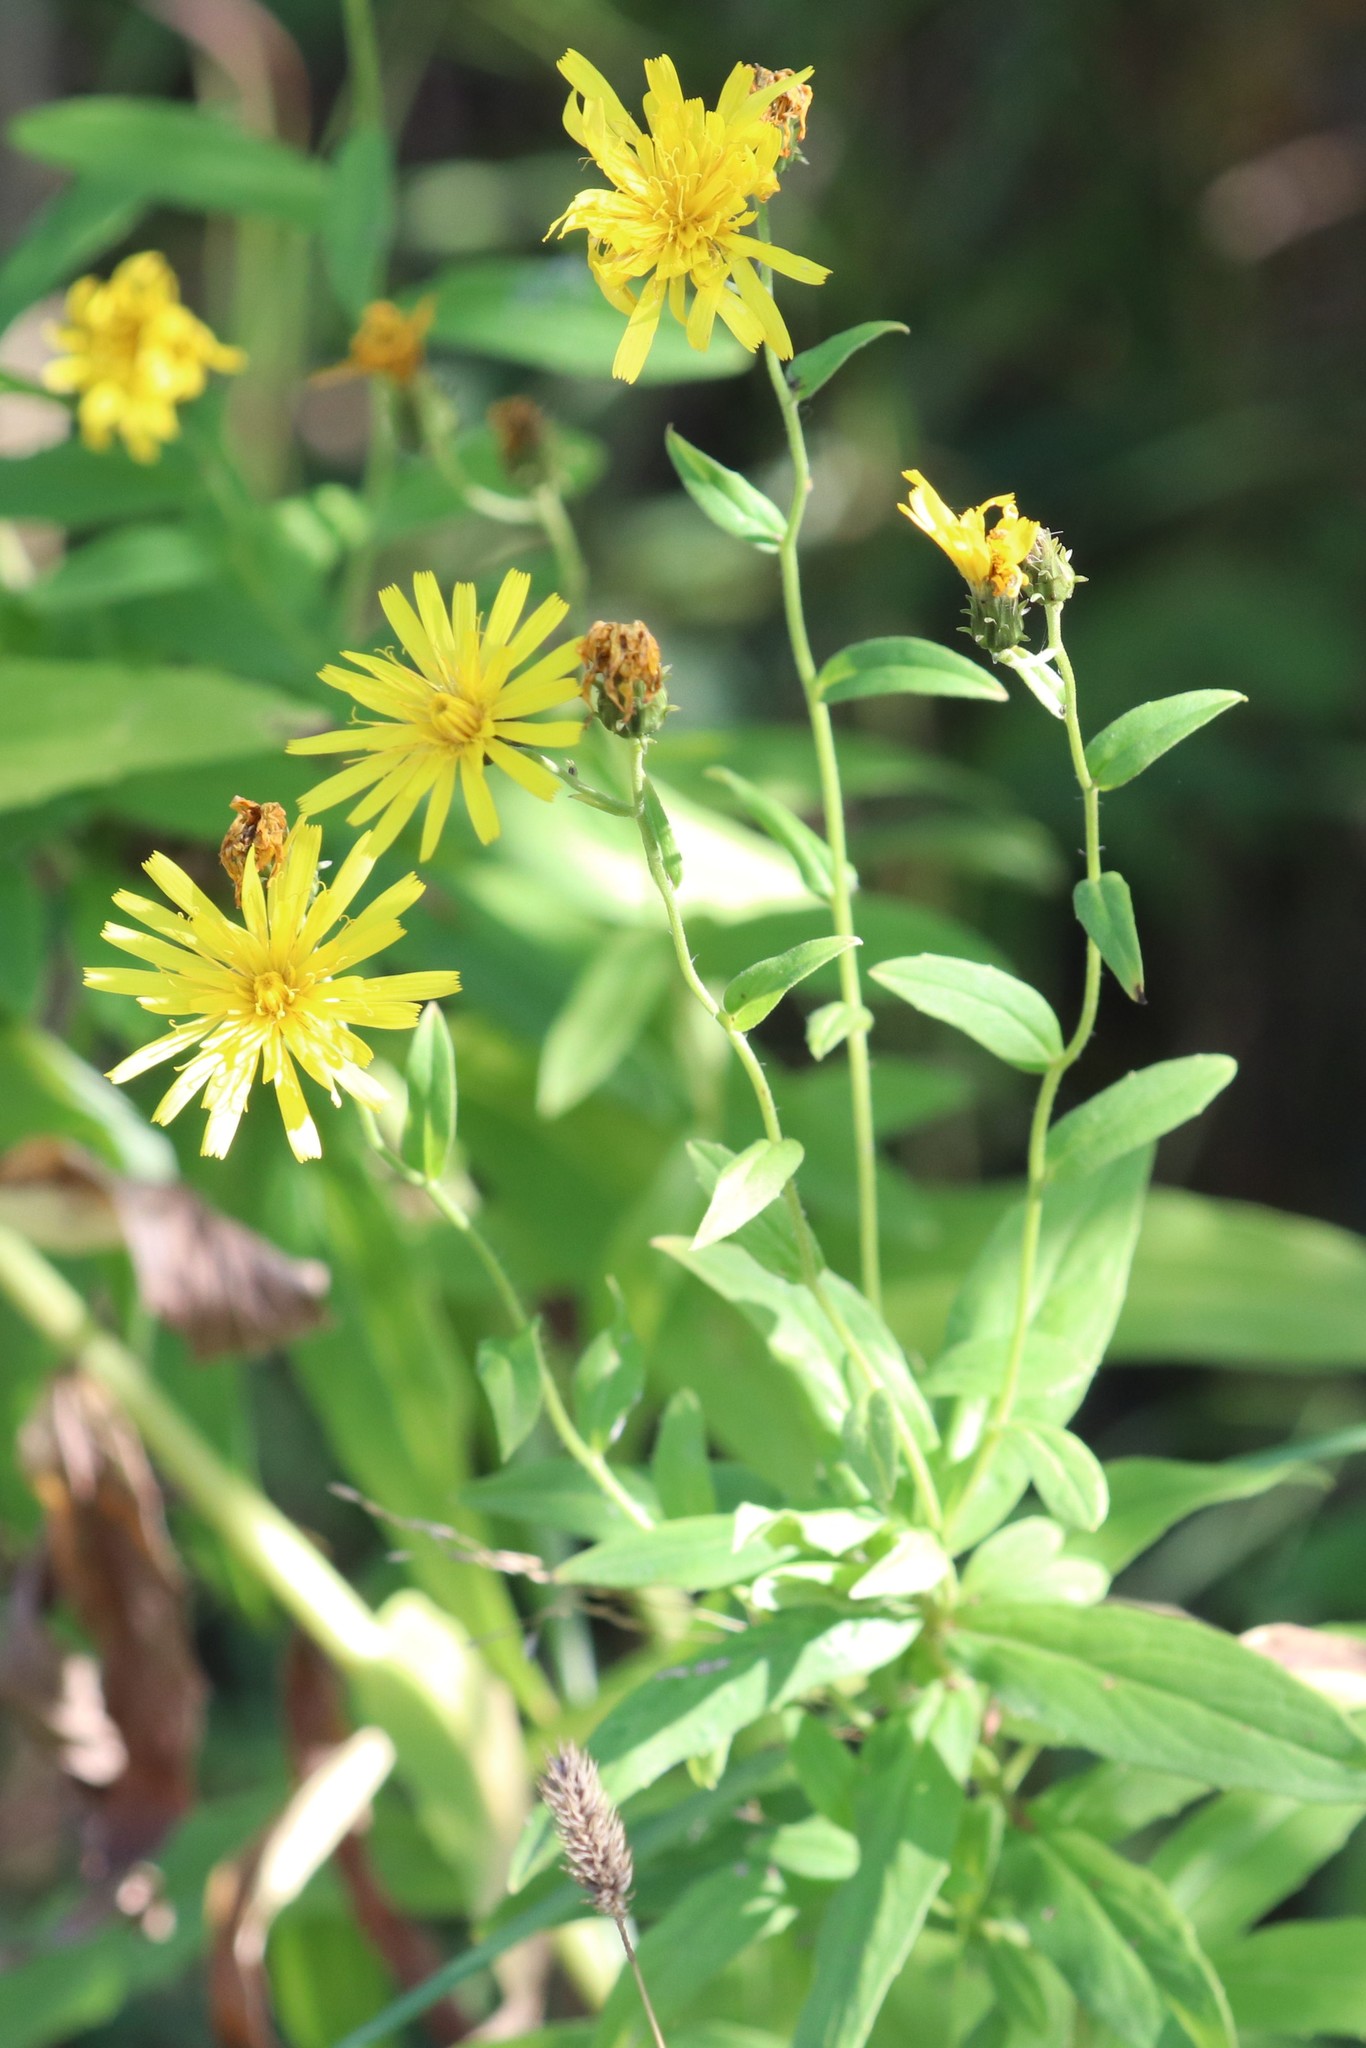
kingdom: Plantae
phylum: Tracheophyta
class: Magnoliopsida
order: Asterales
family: Asteraceae
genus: Hieracium
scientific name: Hieracium umbellatum
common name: Northern hawkweed
